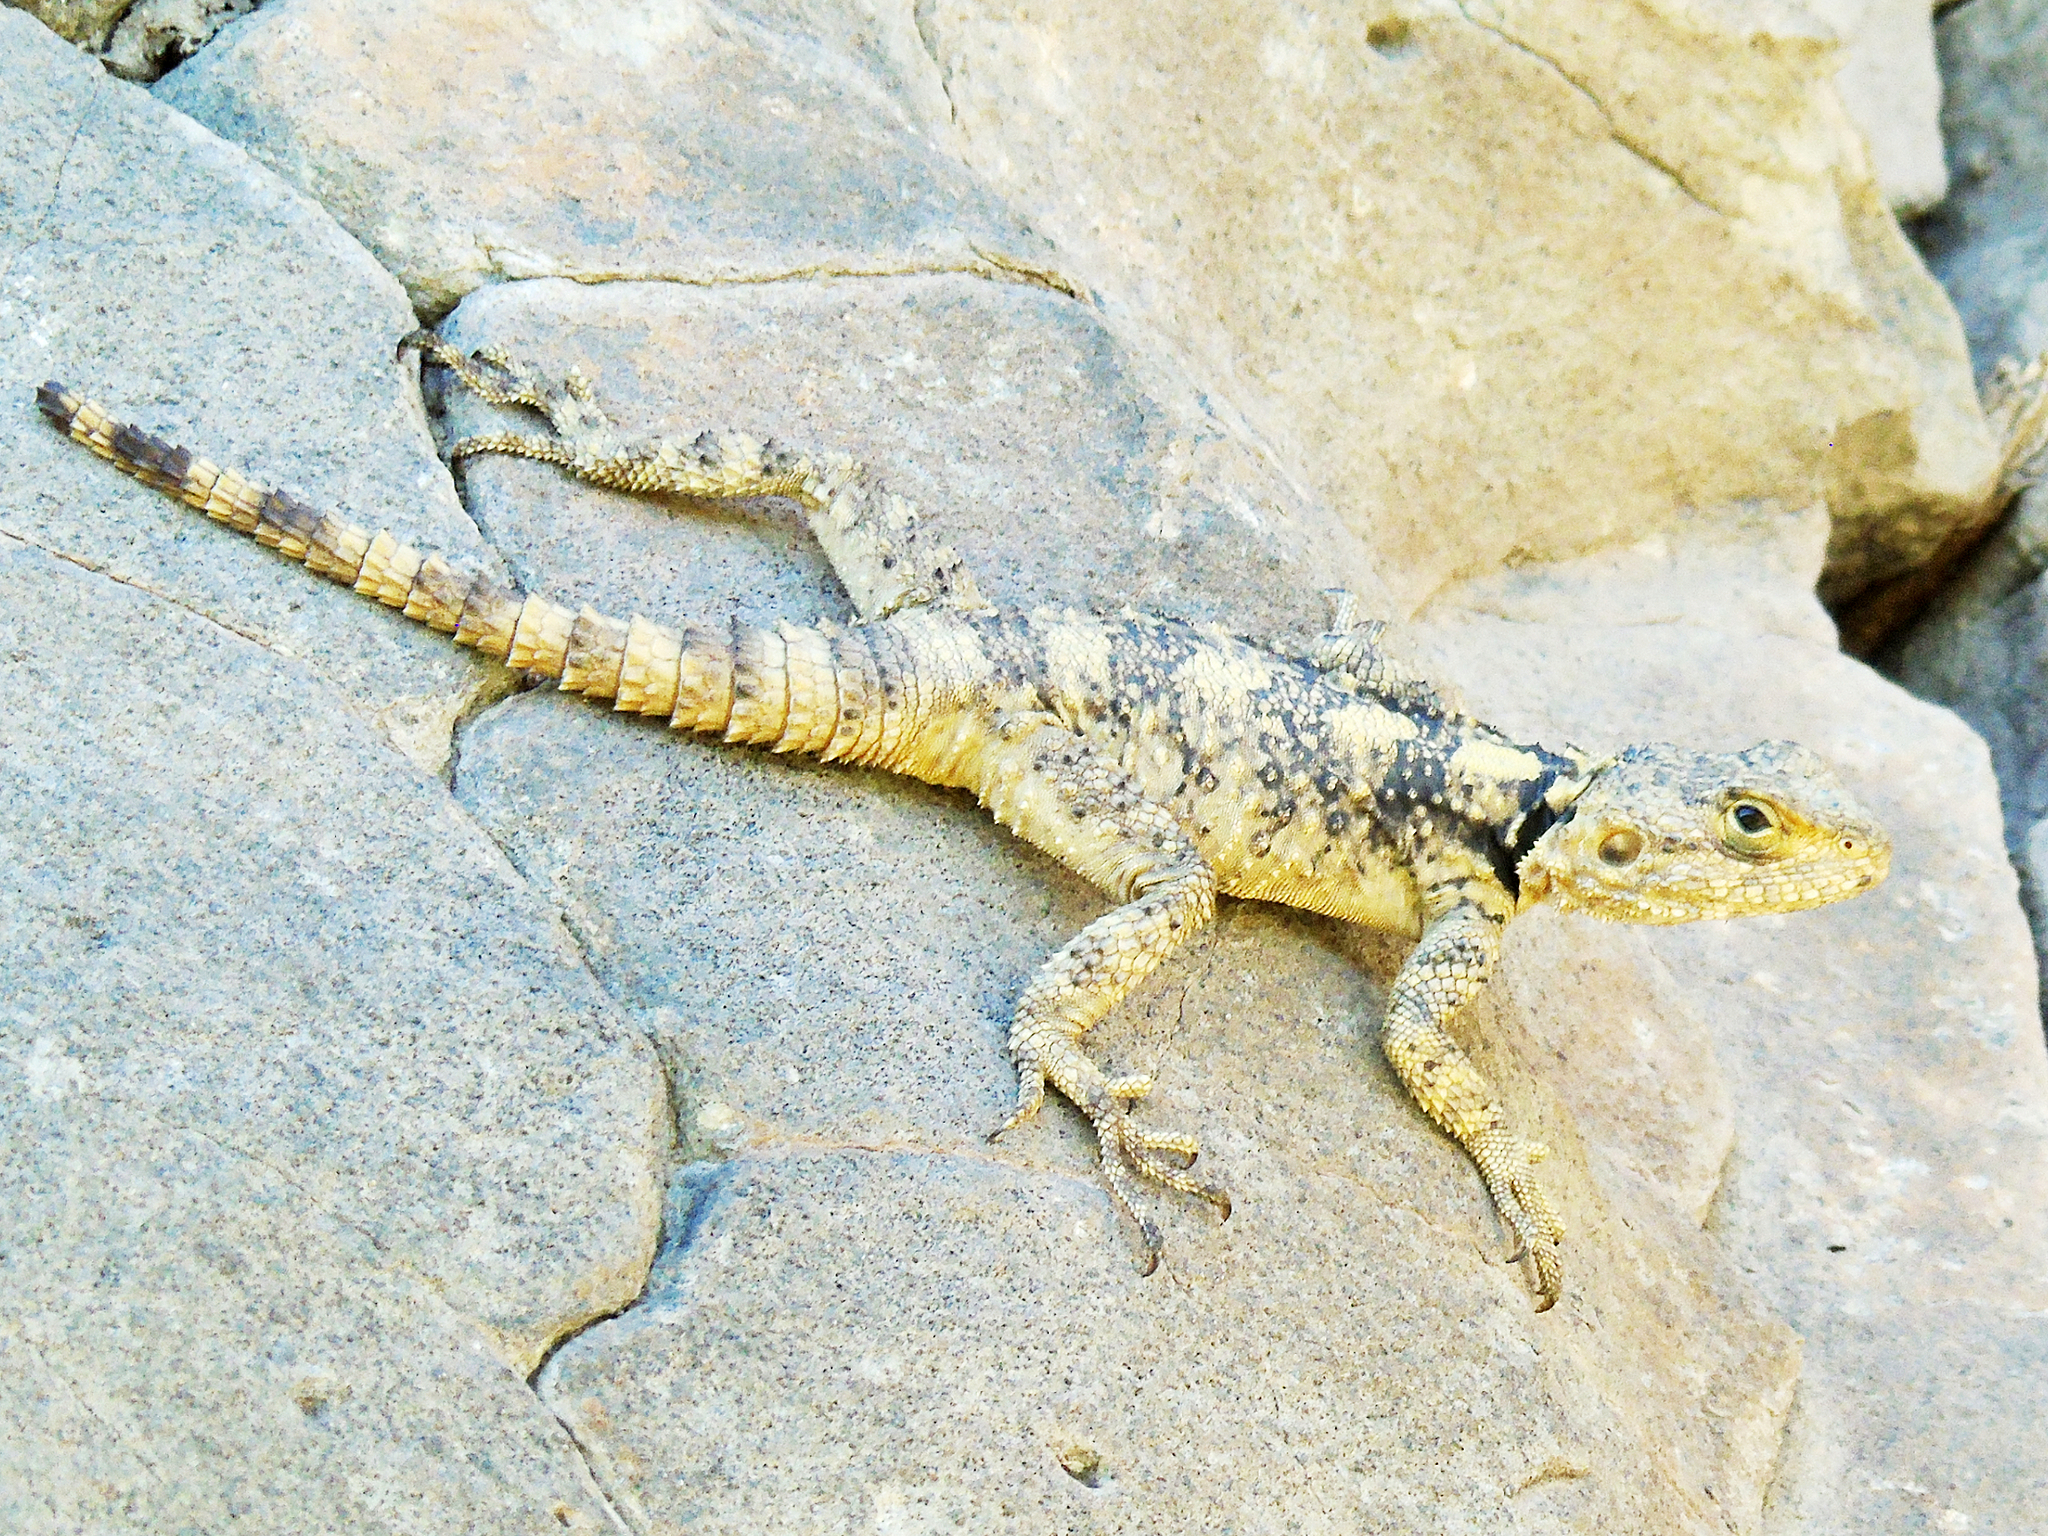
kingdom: Animalia
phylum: Chordata
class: Squamata
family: Agamidae
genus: Stellagama
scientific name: Stellagama stellio
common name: Starred agama
